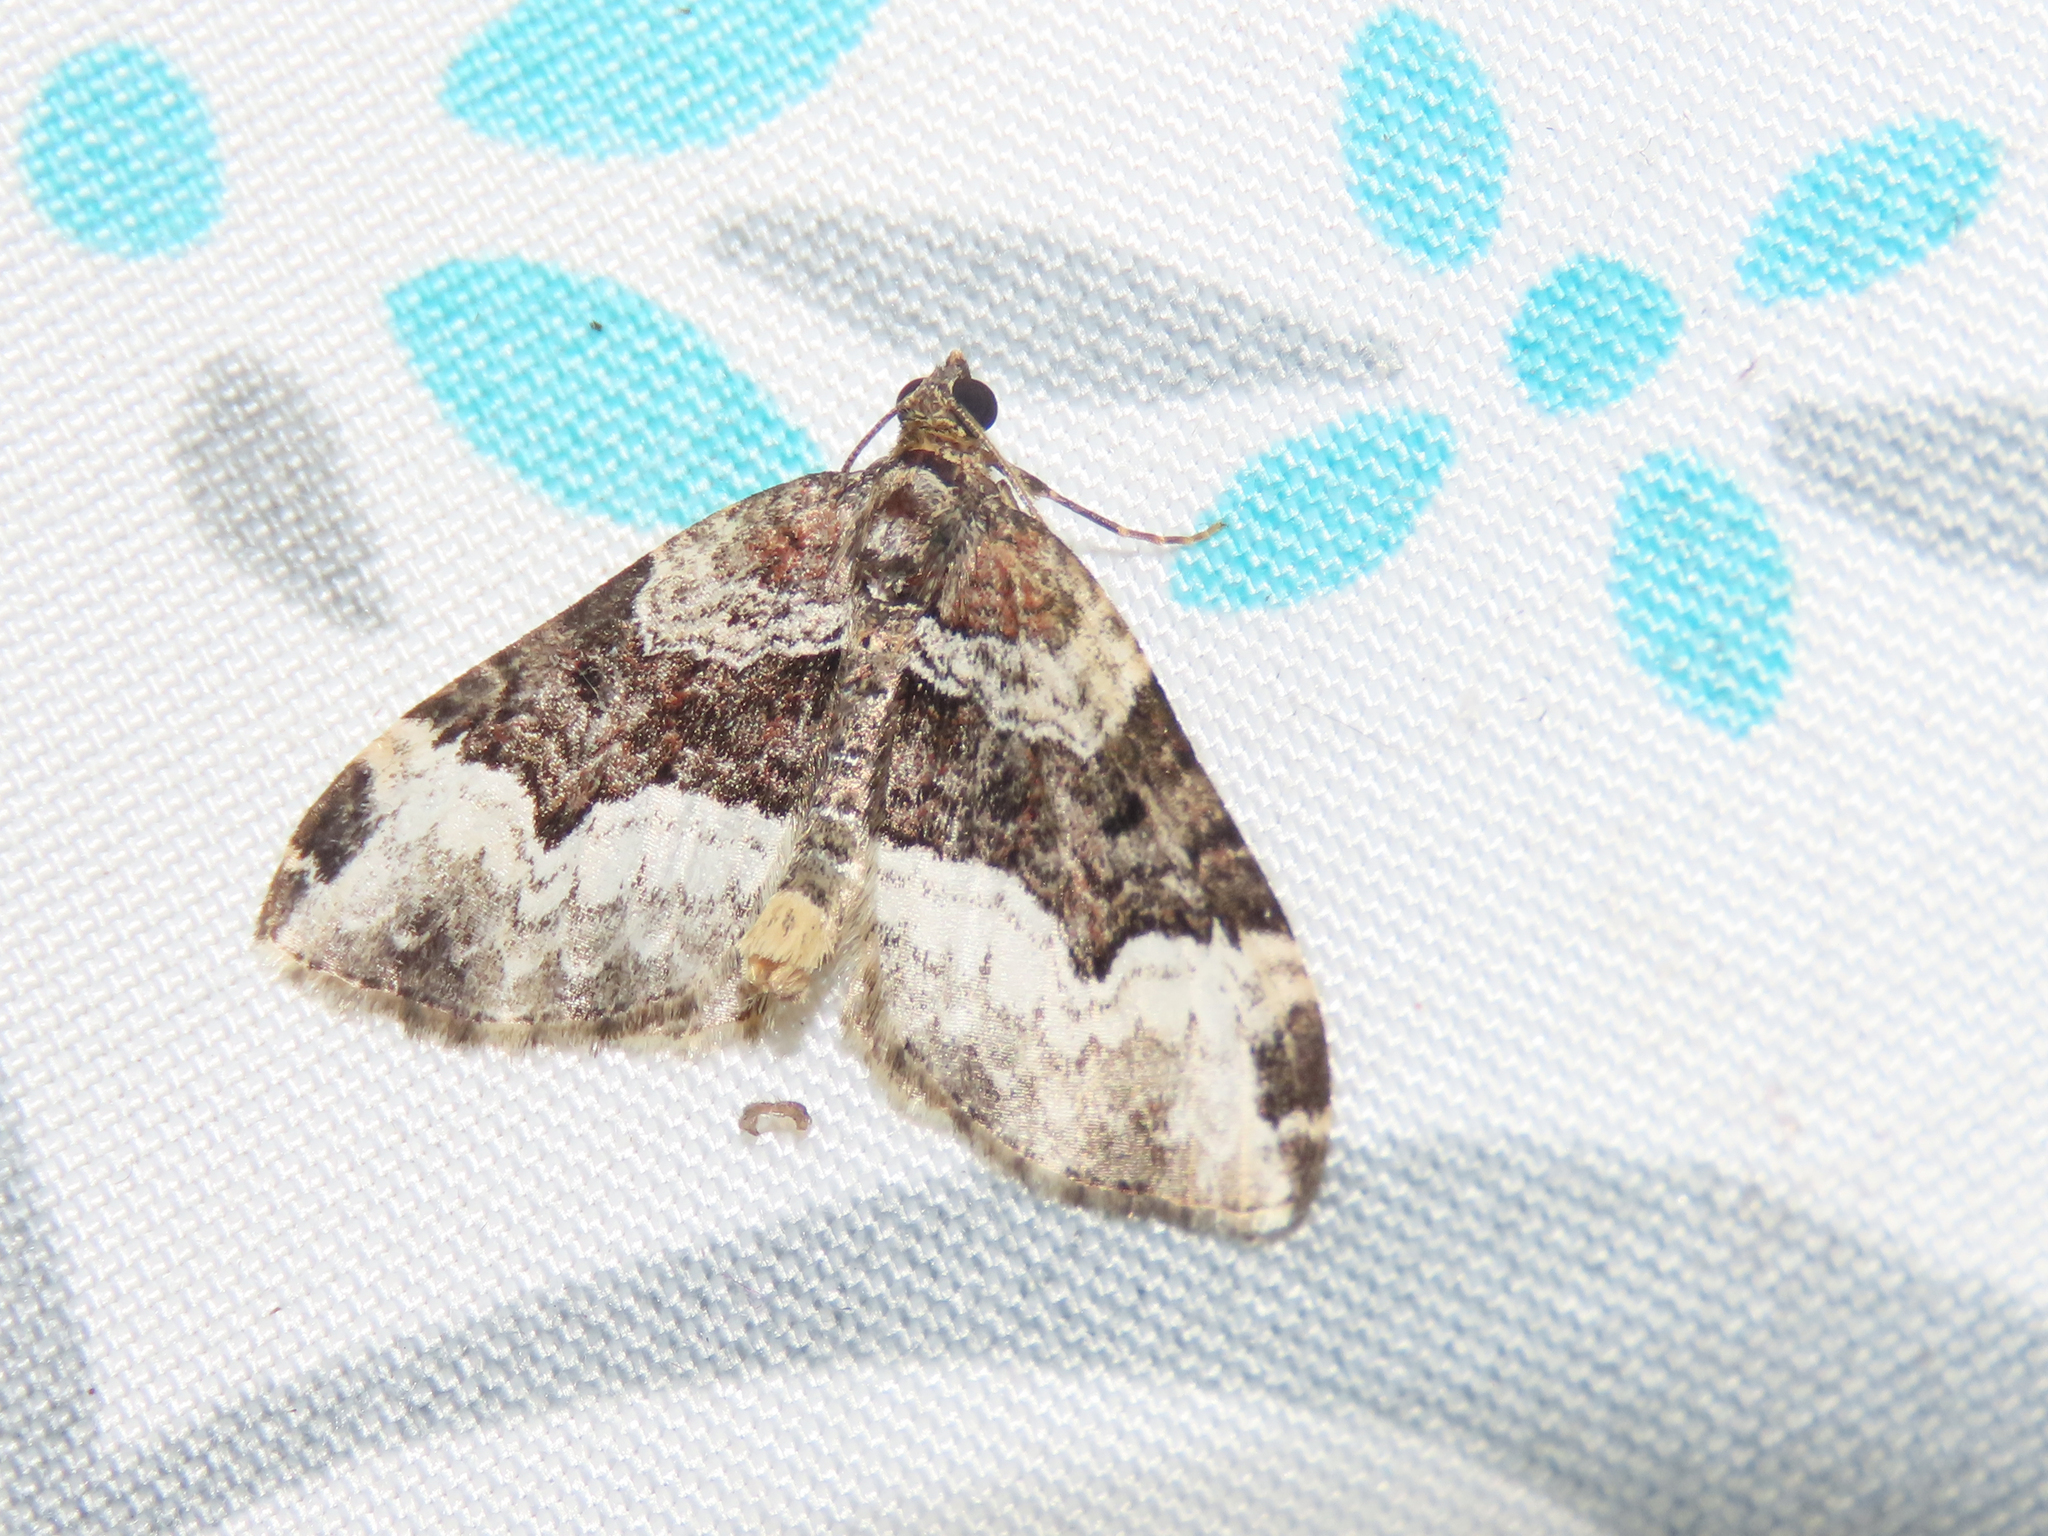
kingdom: Animalia
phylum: Arthropoda
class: Insecta
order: Lepidoptera
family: Geometridae
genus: Euphyia
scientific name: Euphyia intermediata
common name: Sharp-angled carpet
